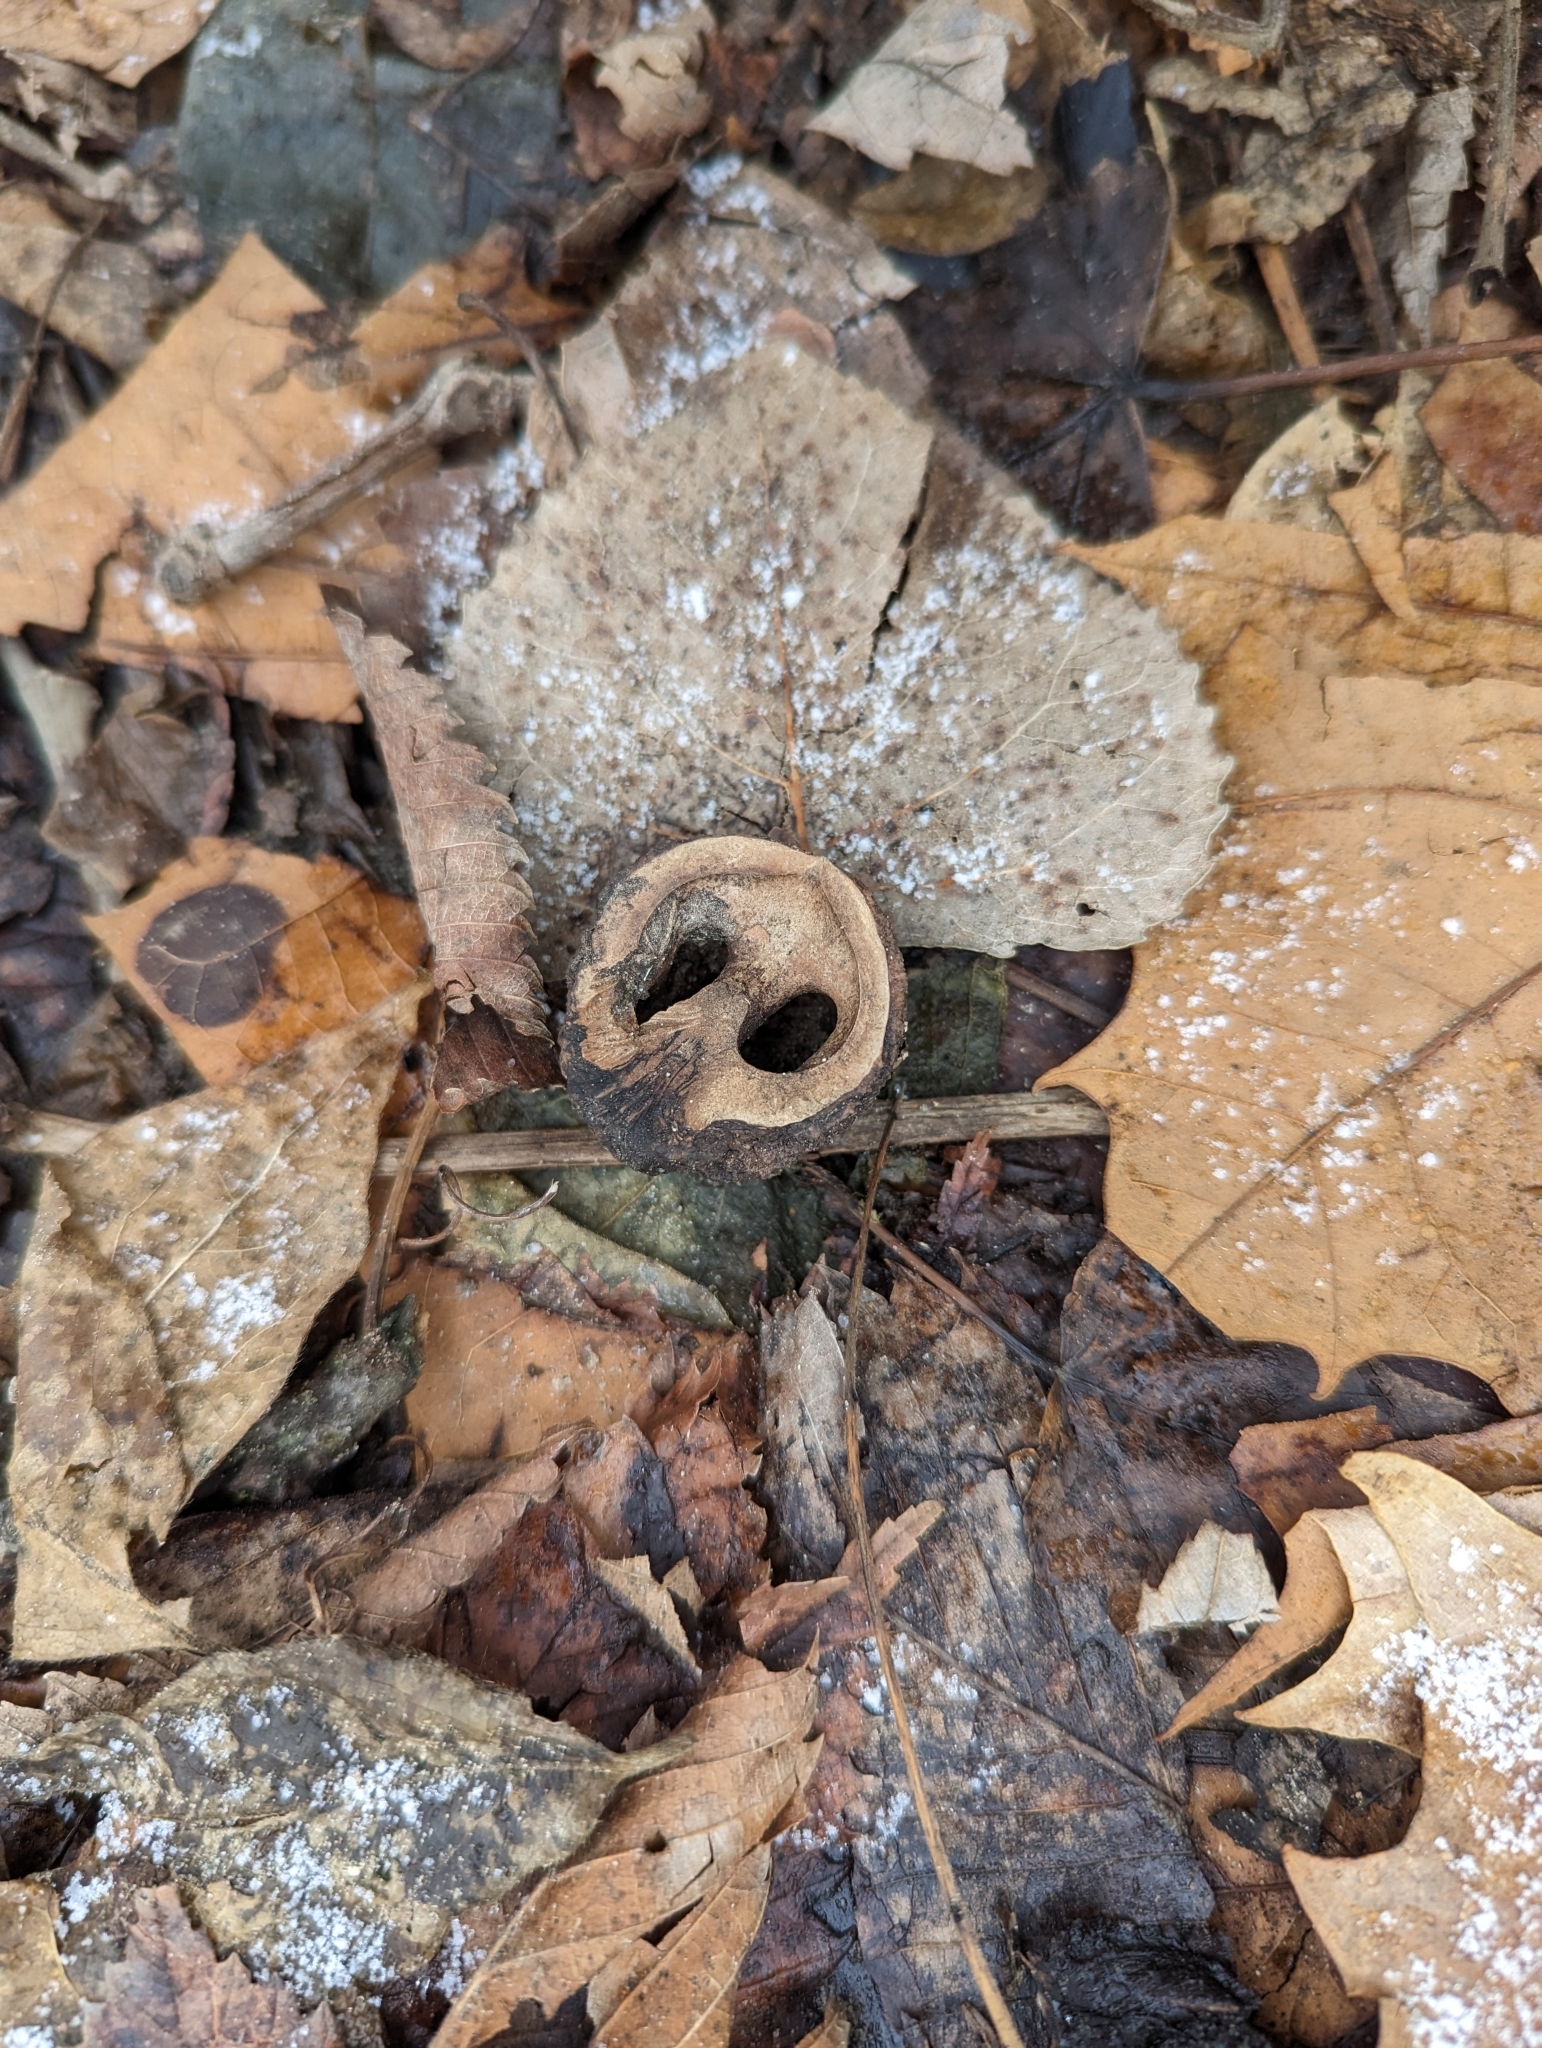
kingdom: Plantae
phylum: Tracheophyta
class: Magnoliopsida
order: Fagales
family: Juglandaceae
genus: Juglans
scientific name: Juglans nigra
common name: Black walnut
